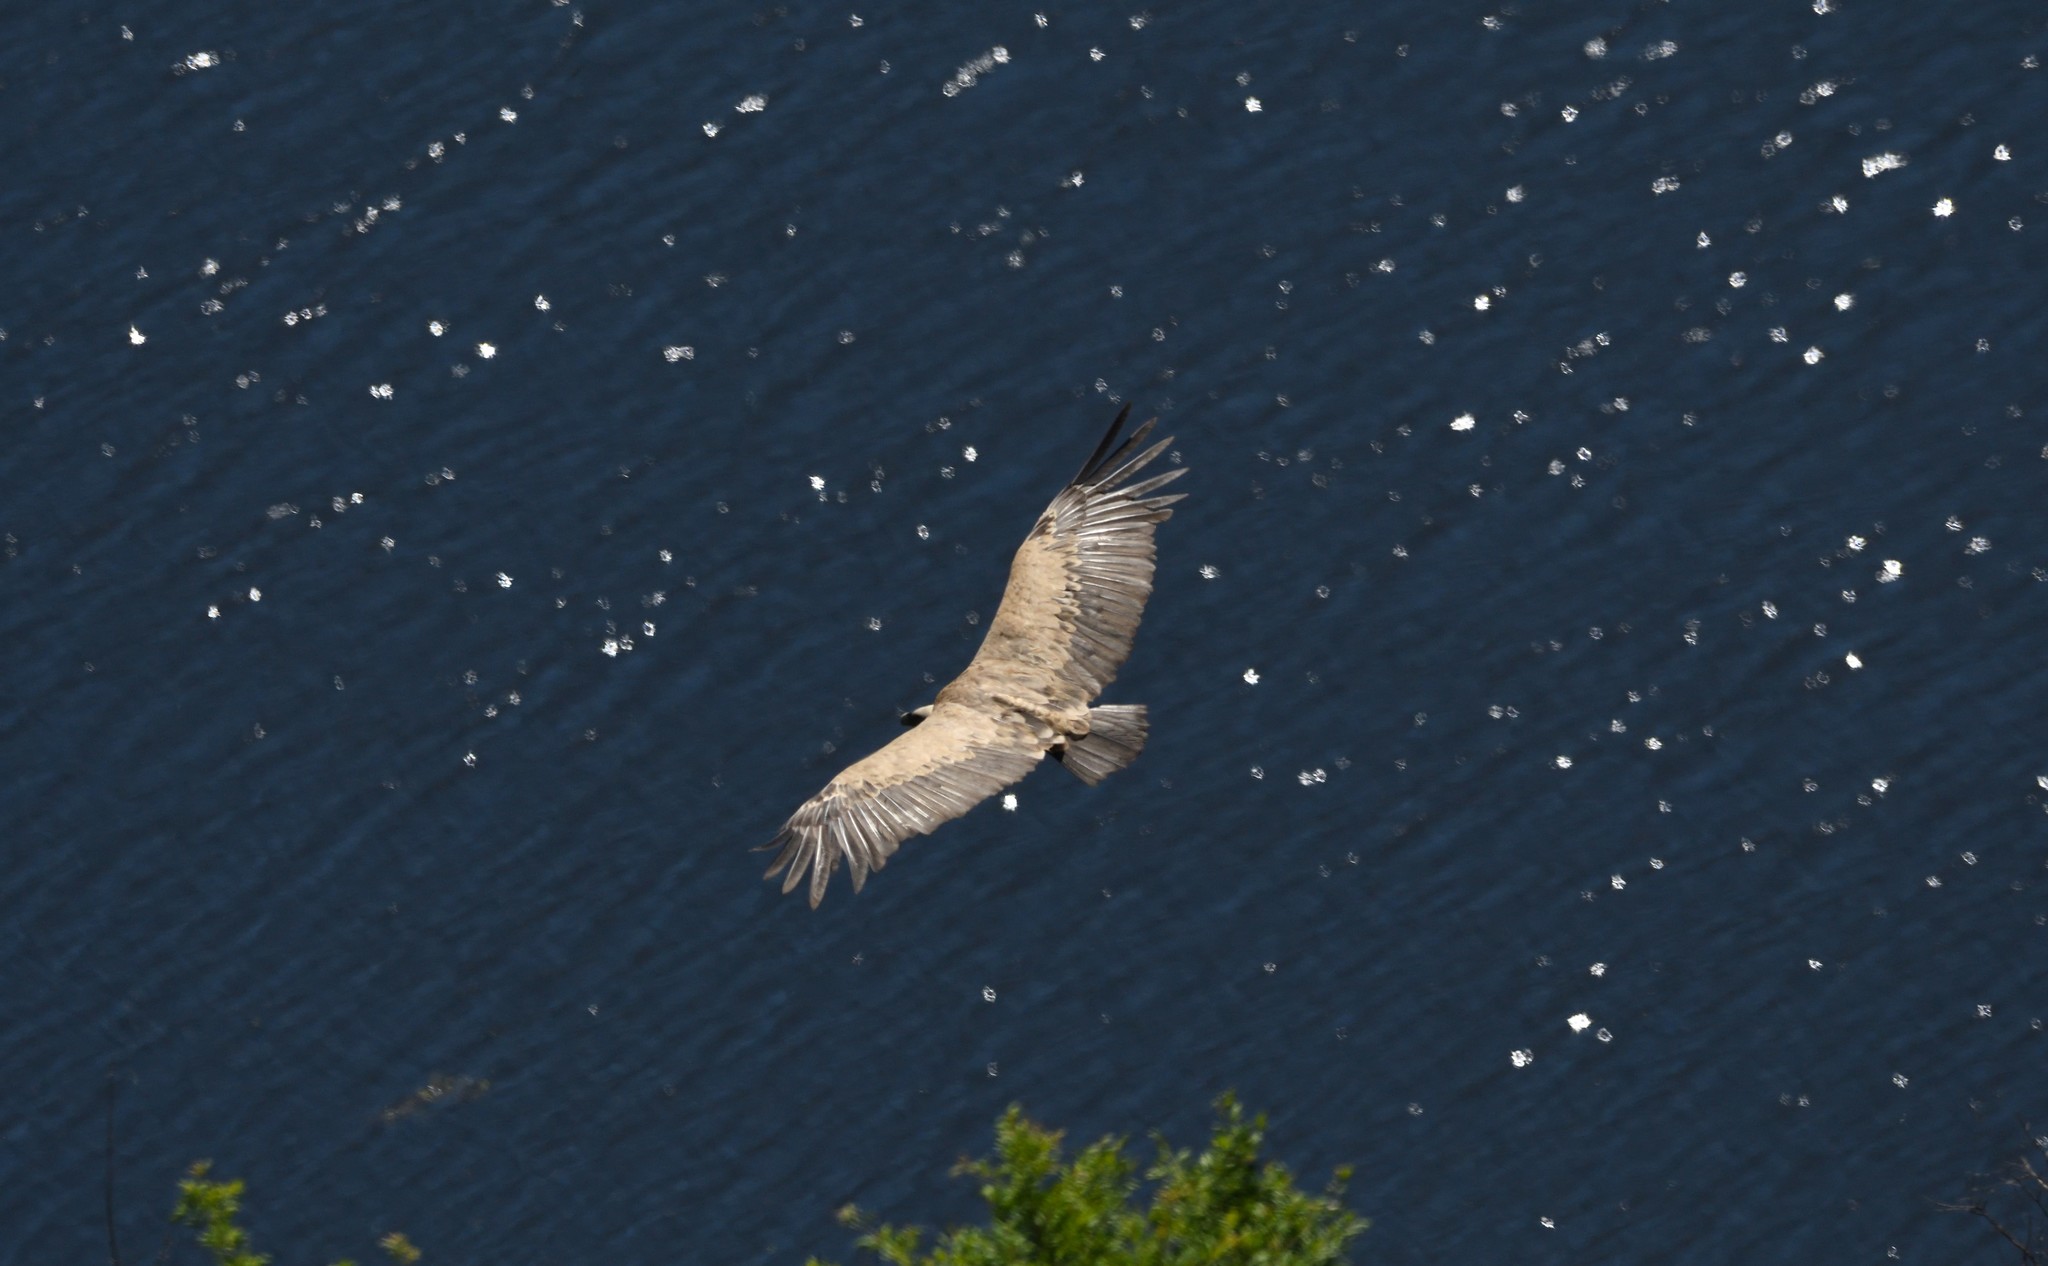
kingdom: Animalia
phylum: Chordata
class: Aves
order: Accipitriformes
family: Accipitridae
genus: Gyps
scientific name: Gyps fulvus
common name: Griffon vulture
